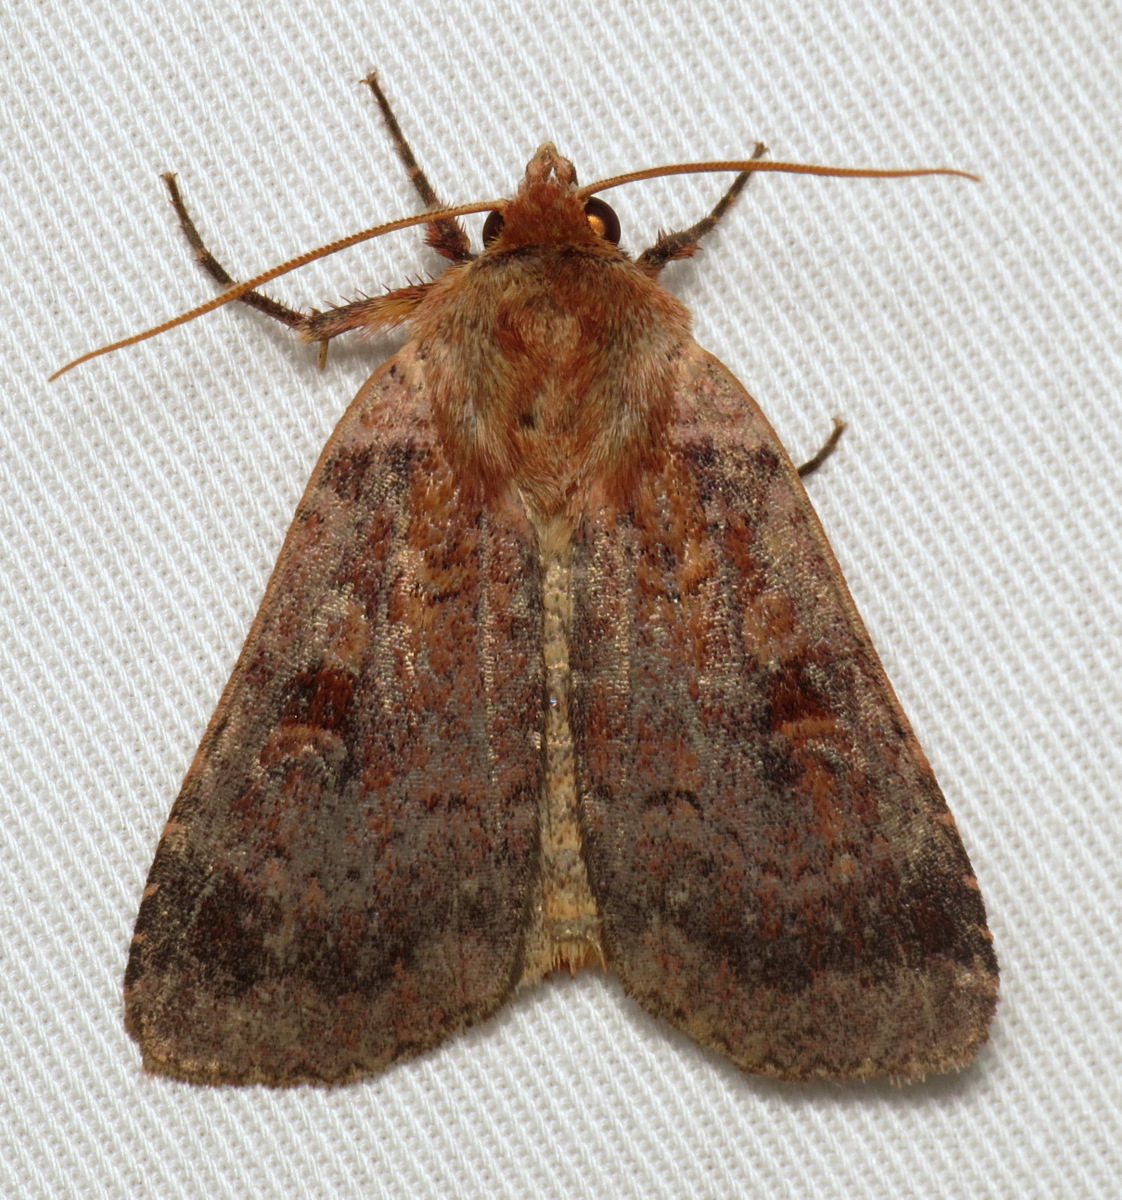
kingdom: Animalia
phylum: Arthropoda
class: Insecta
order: Lepidoptera
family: Noctuidae
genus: Lycophotia
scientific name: Lycophotia phyllophora
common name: Lycophotia moth
